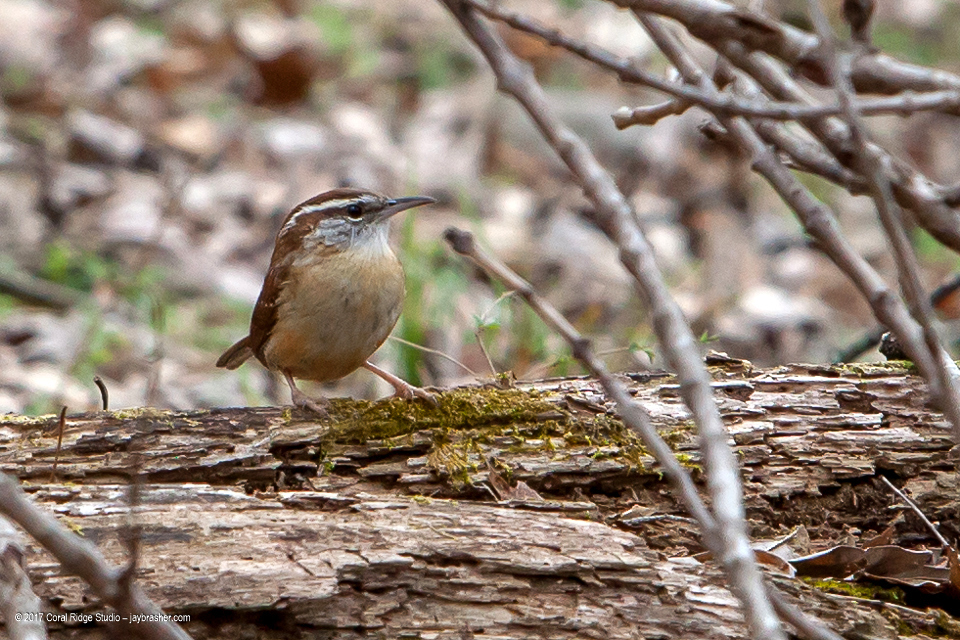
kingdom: Animalia
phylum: Chordata
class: Aves
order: Passeriformes
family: Troglodytidae
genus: Thryothorus
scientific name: Thryothorus ludovicianus
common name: Carolina wren
